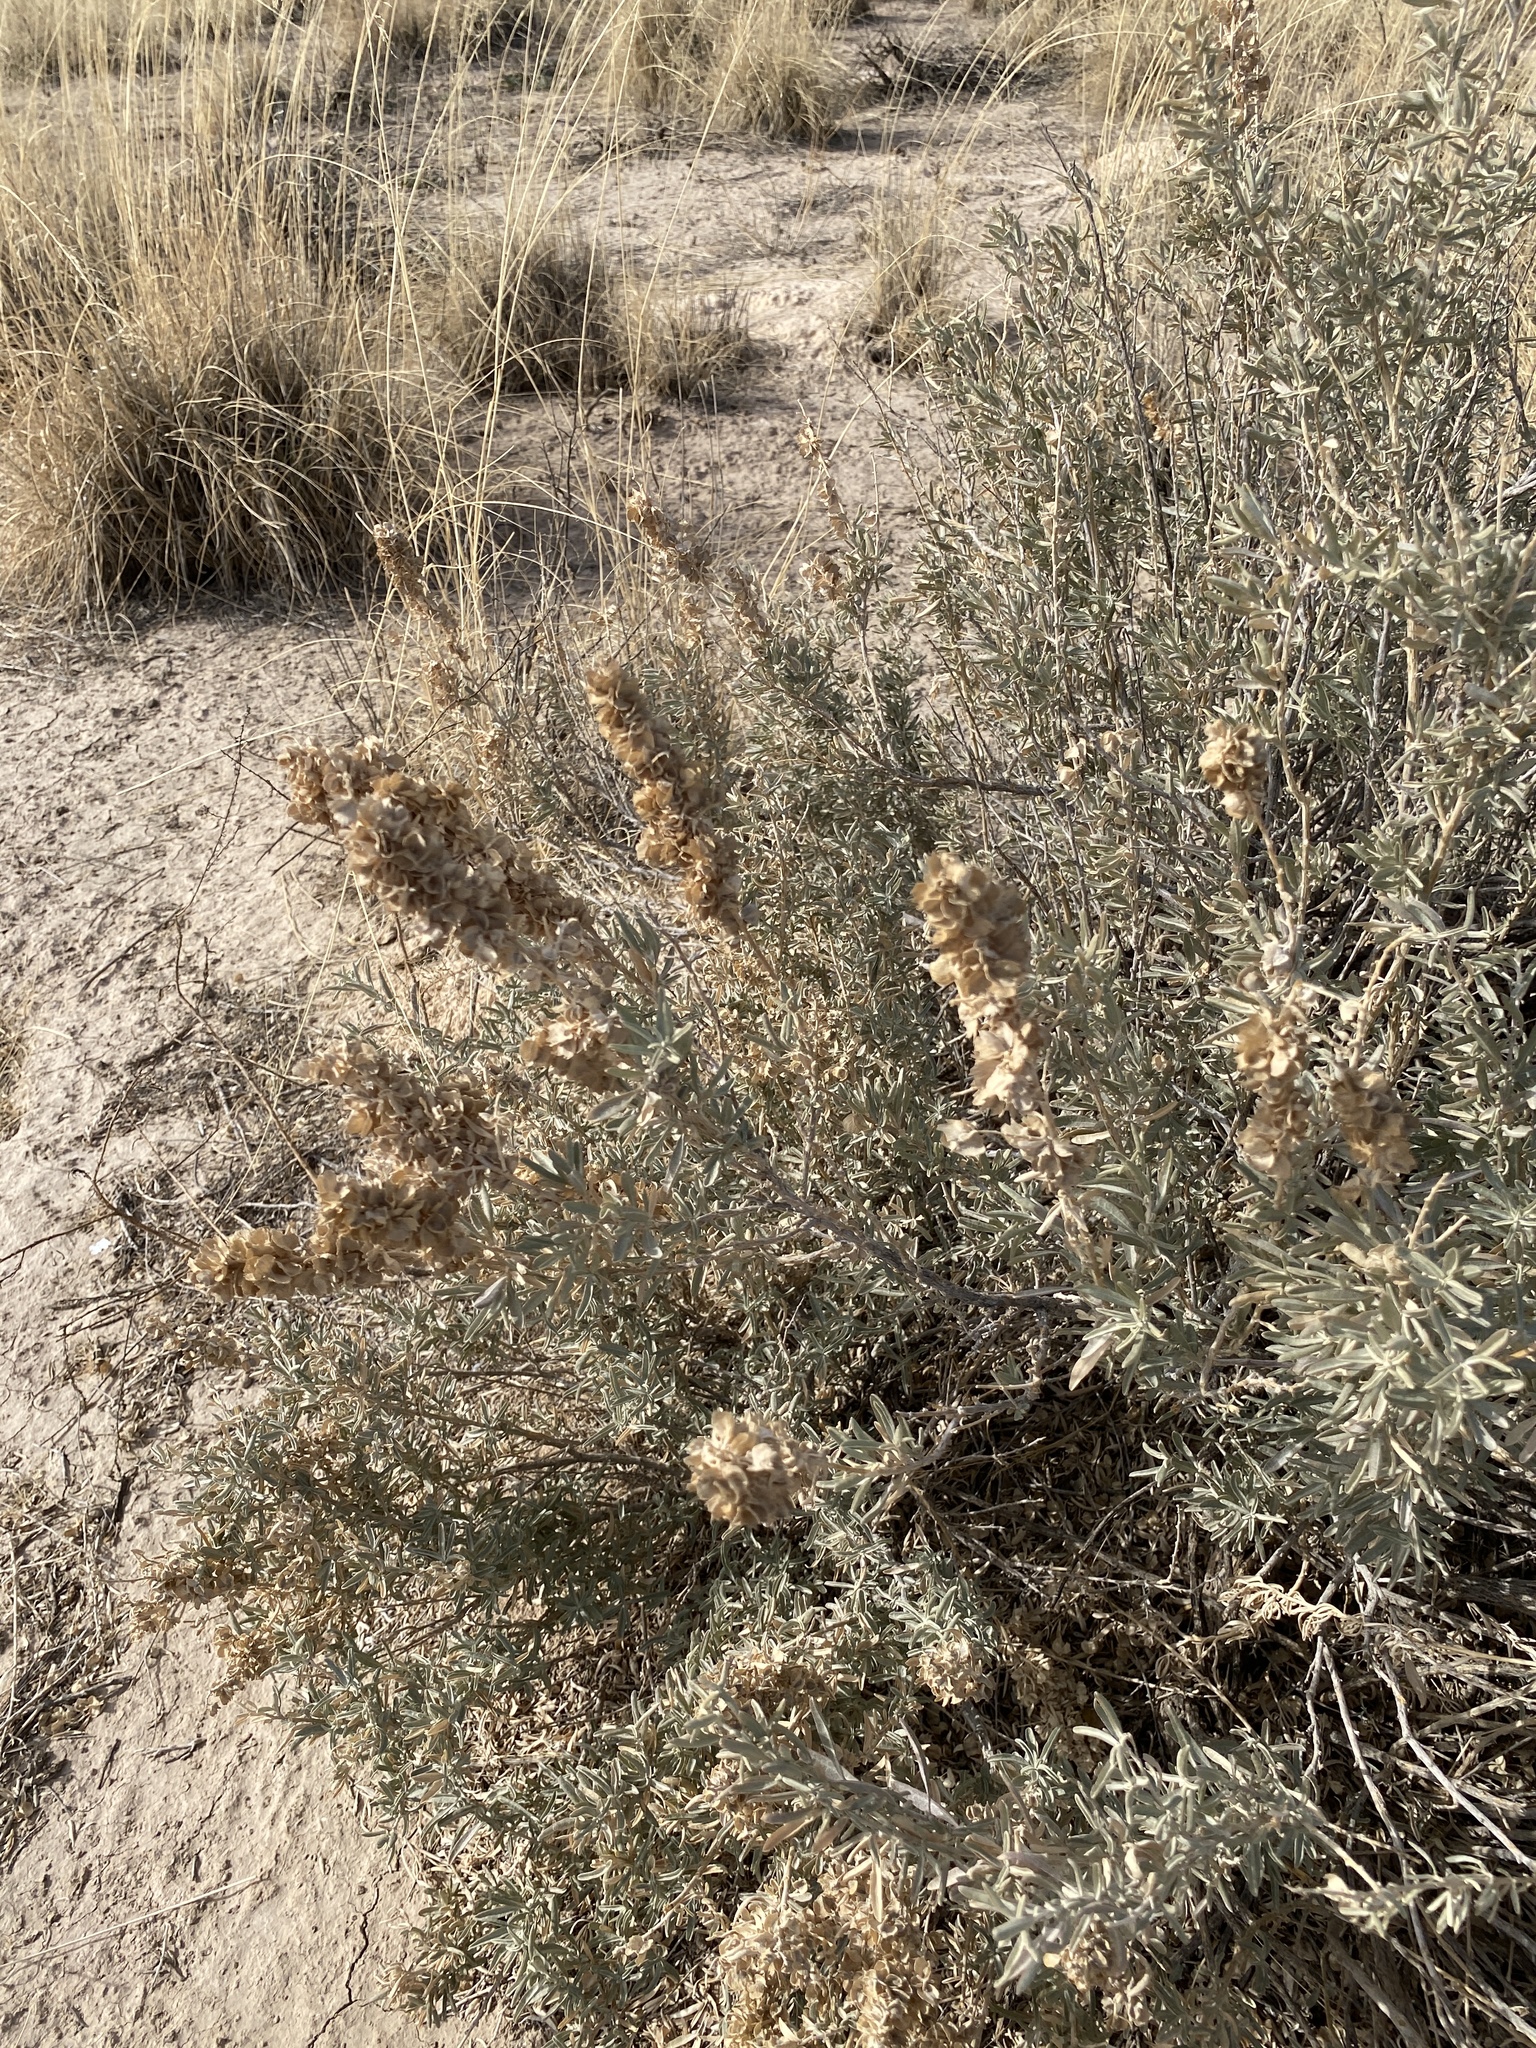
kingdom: Plantae
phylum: Tracheophyta
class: Magnoliopsida
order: Caryophyllales
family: Amaranthaceae
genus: Atriplex
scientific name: Atriplex canescens
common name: Four-wing saltbush
